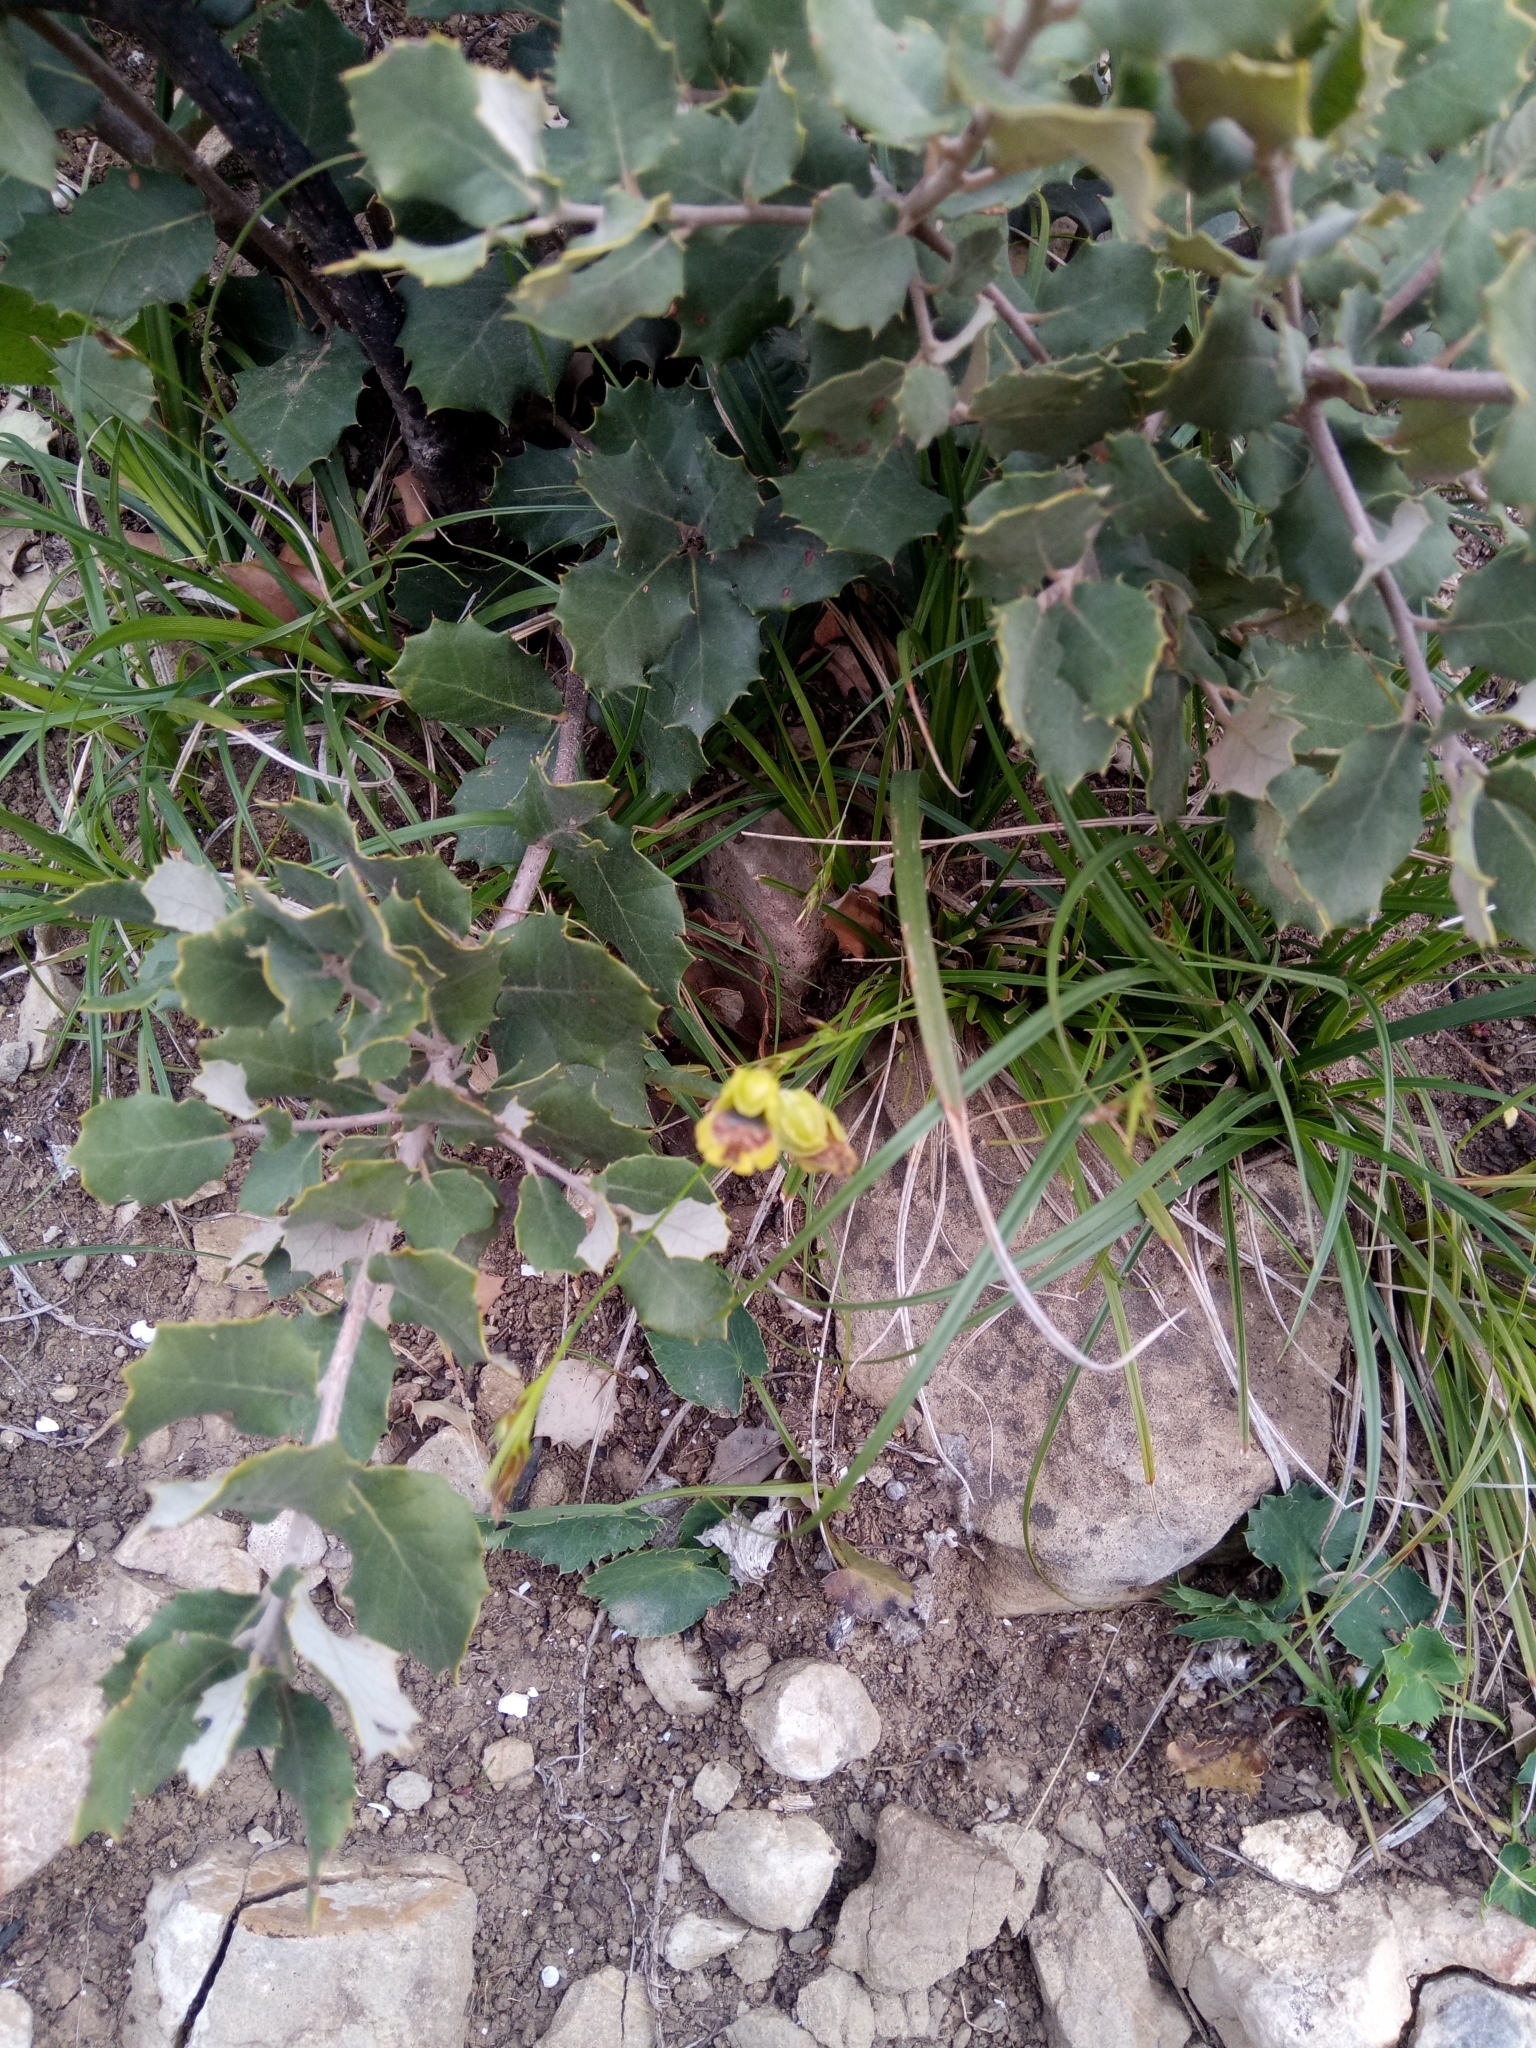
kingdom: Plantae
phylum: Tracheophyta
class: Liliopsida
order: Asparagales
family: Orchidaceae
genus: Ophrys
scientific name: Ophrys battandieri
